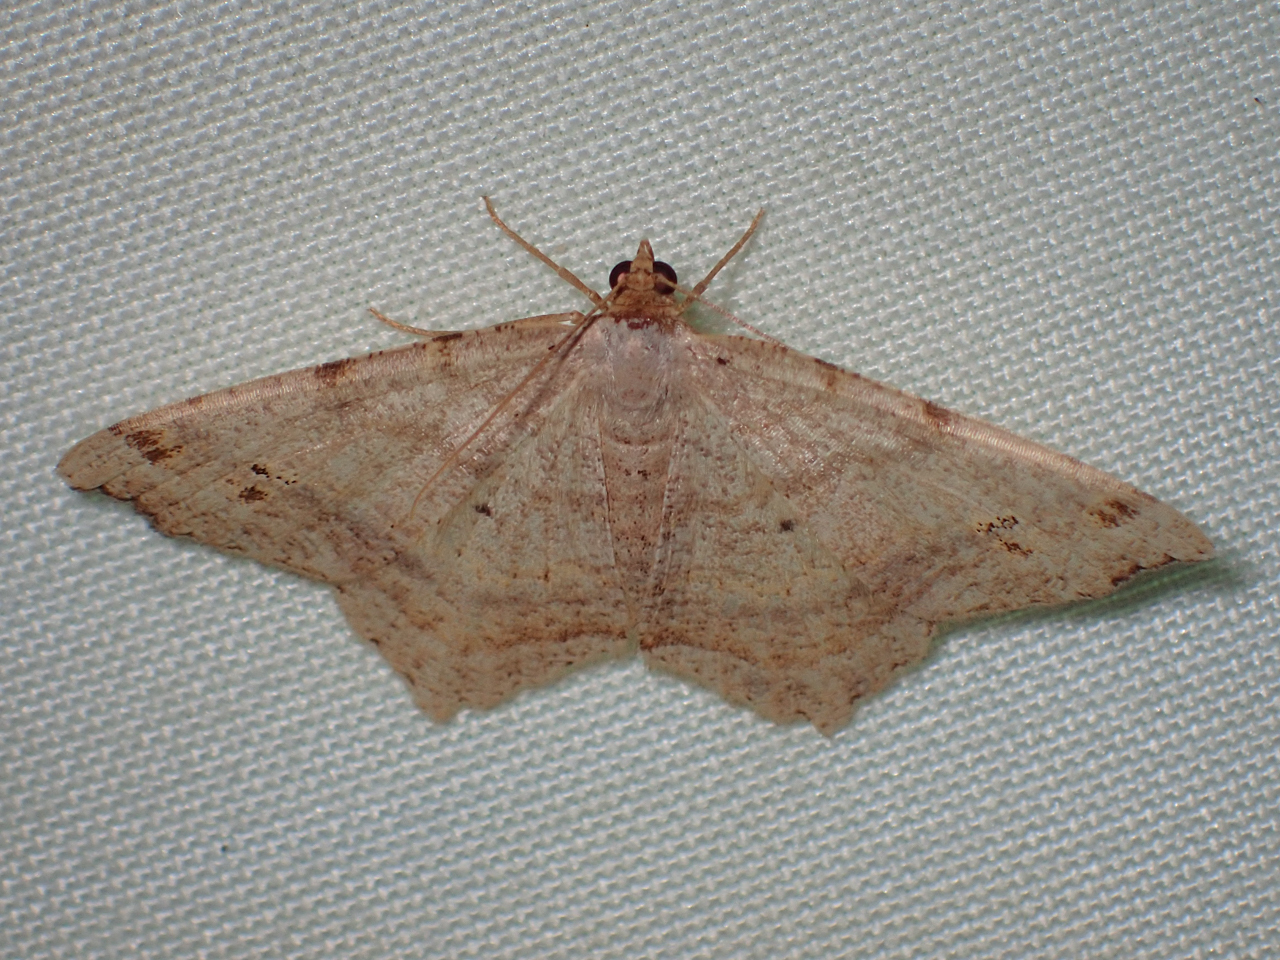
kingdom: Animalia
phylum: Arthropoda
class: Insecta
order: Lepidoptera
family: Geometridae
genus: Macaria
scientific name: Macaria aemulataria
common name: Common angle
